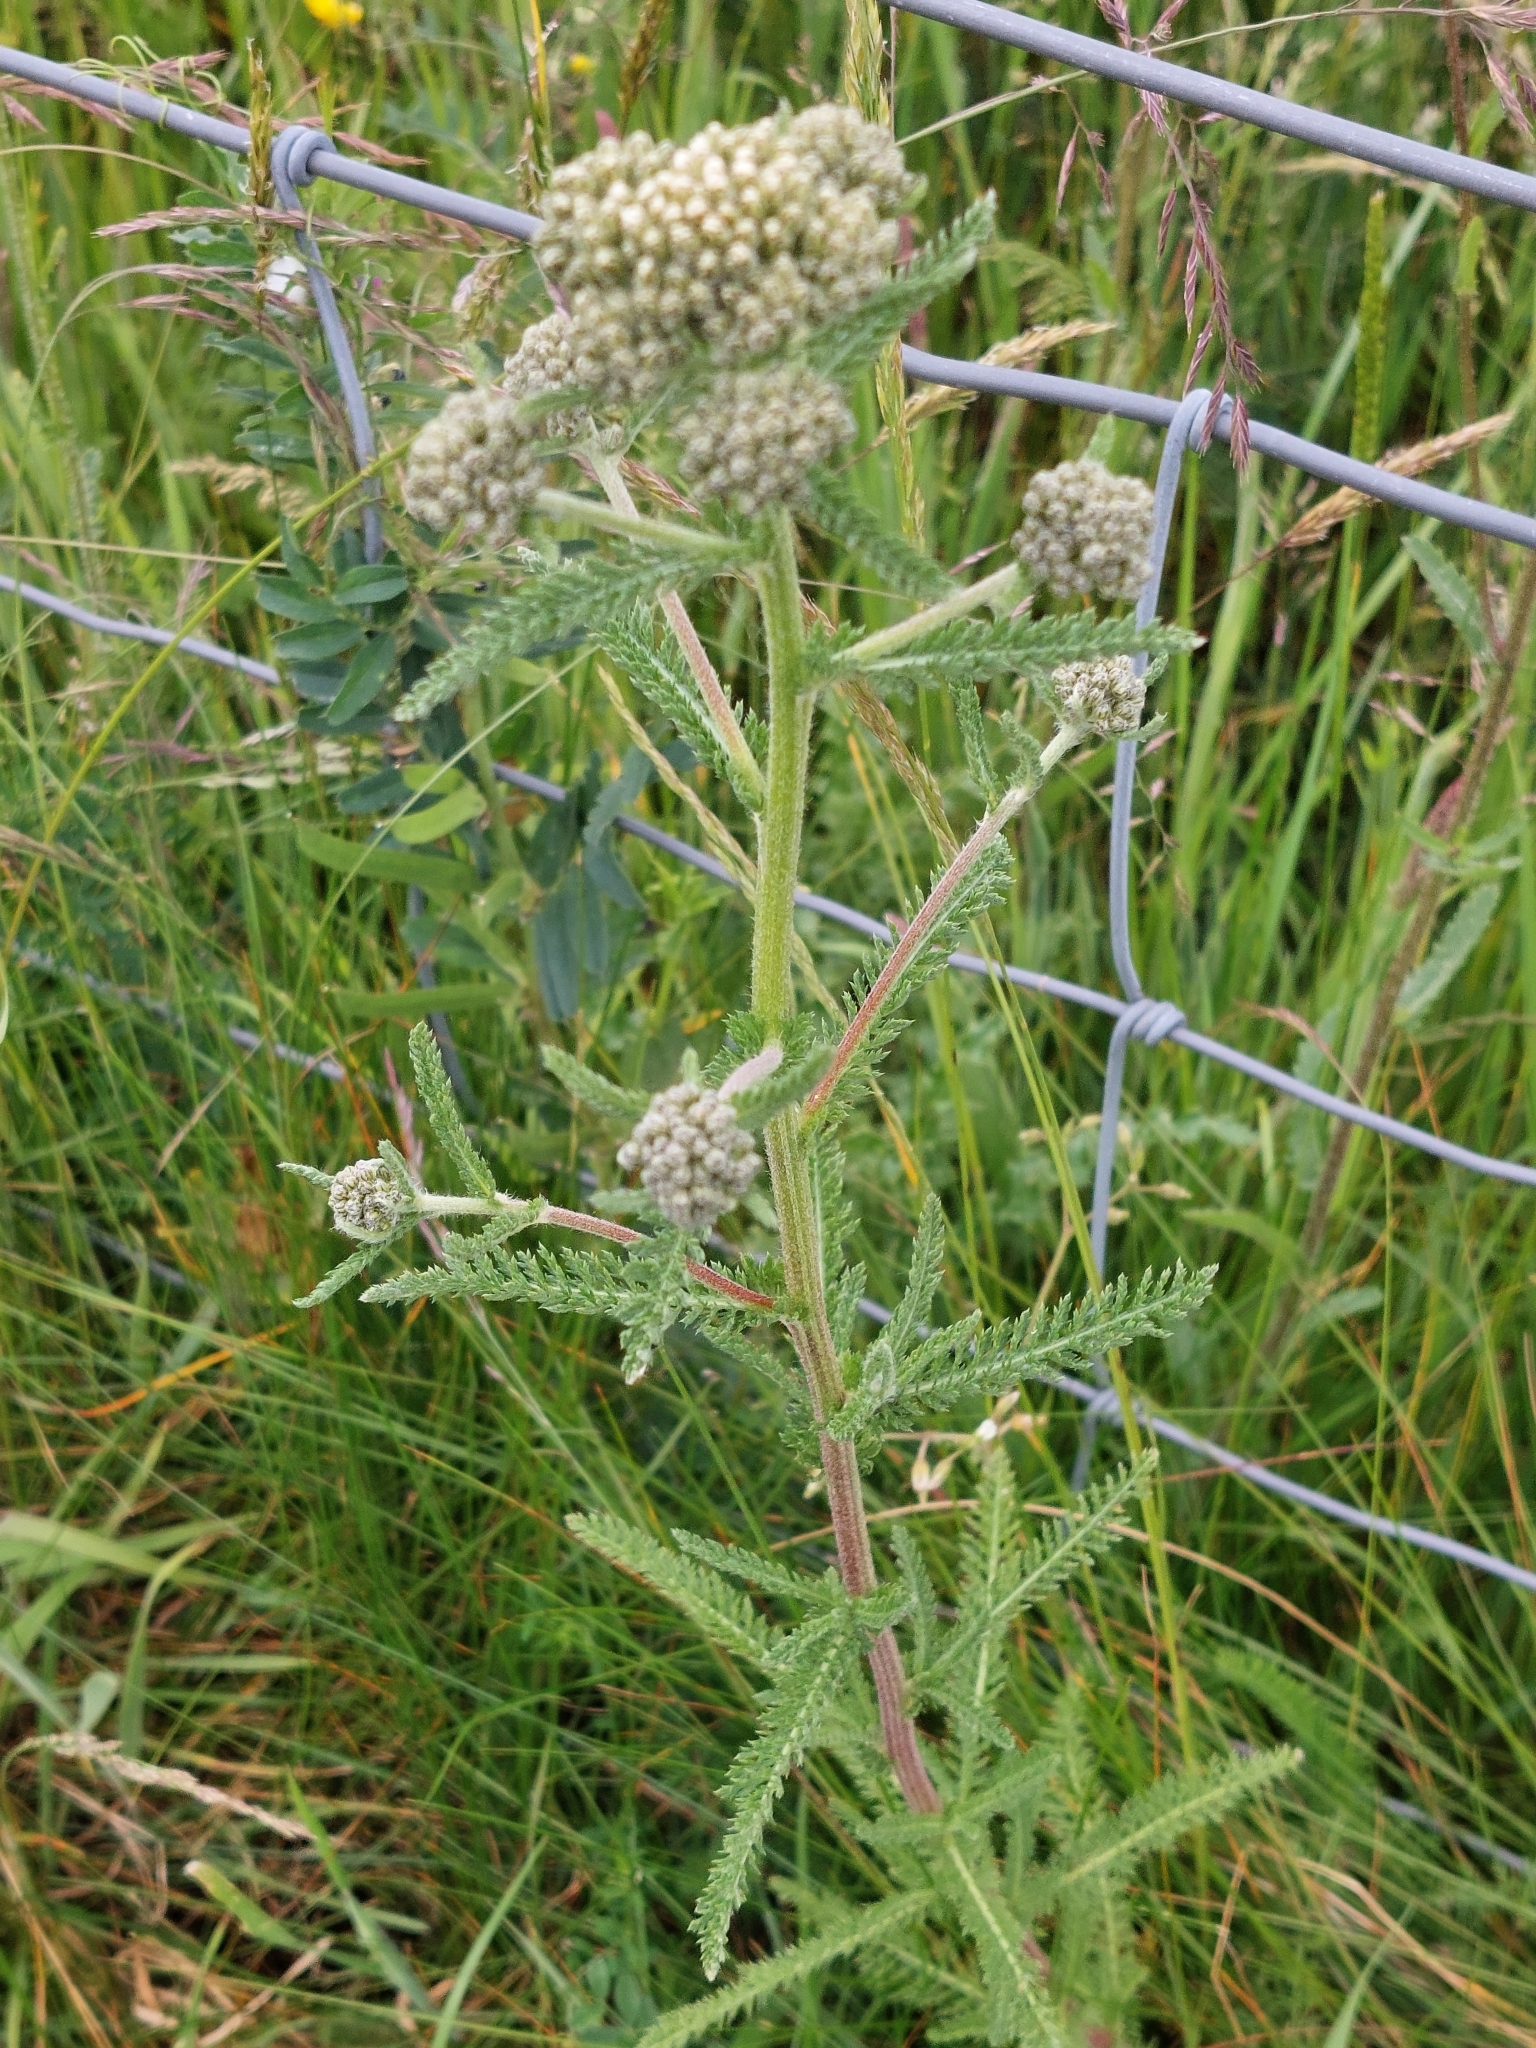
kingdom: Plantae
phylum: Tracheophyta
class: Magnoliopsida
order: Asterales
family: Asteraceae
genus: Achillea
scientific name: Achillea millefolium
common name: Yarrow
